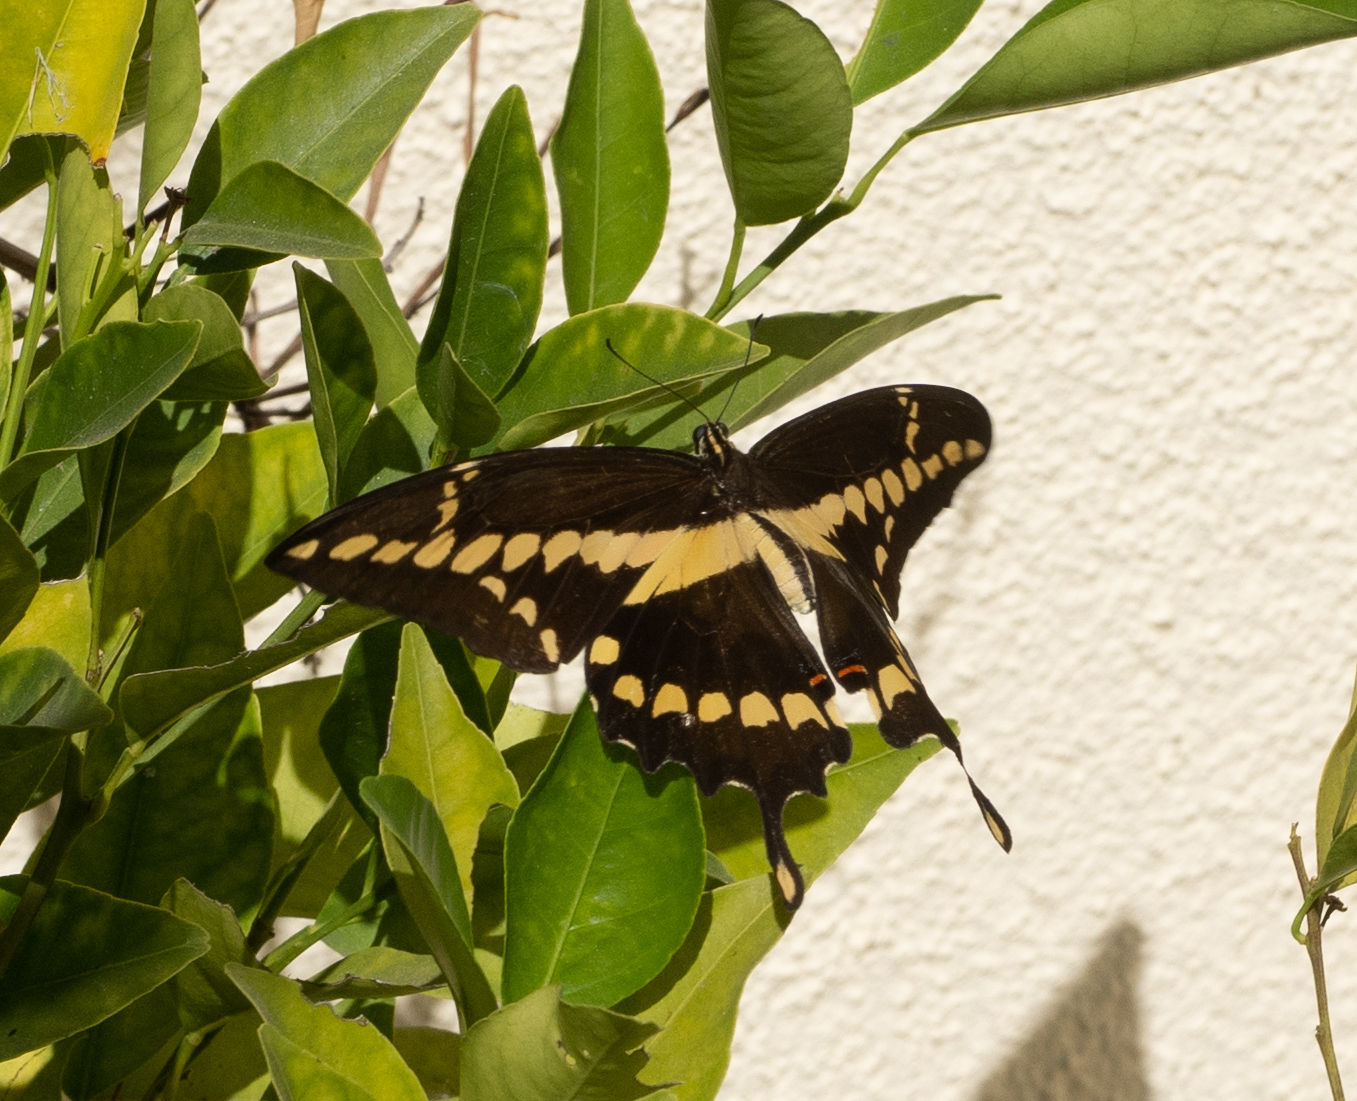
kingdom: Animalia
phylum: Arthropoda
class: Insecta
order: Lepidoptera
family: Papilionidae
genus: Papilio
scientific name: Papilio rumiko
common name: Western giant swallowtail
